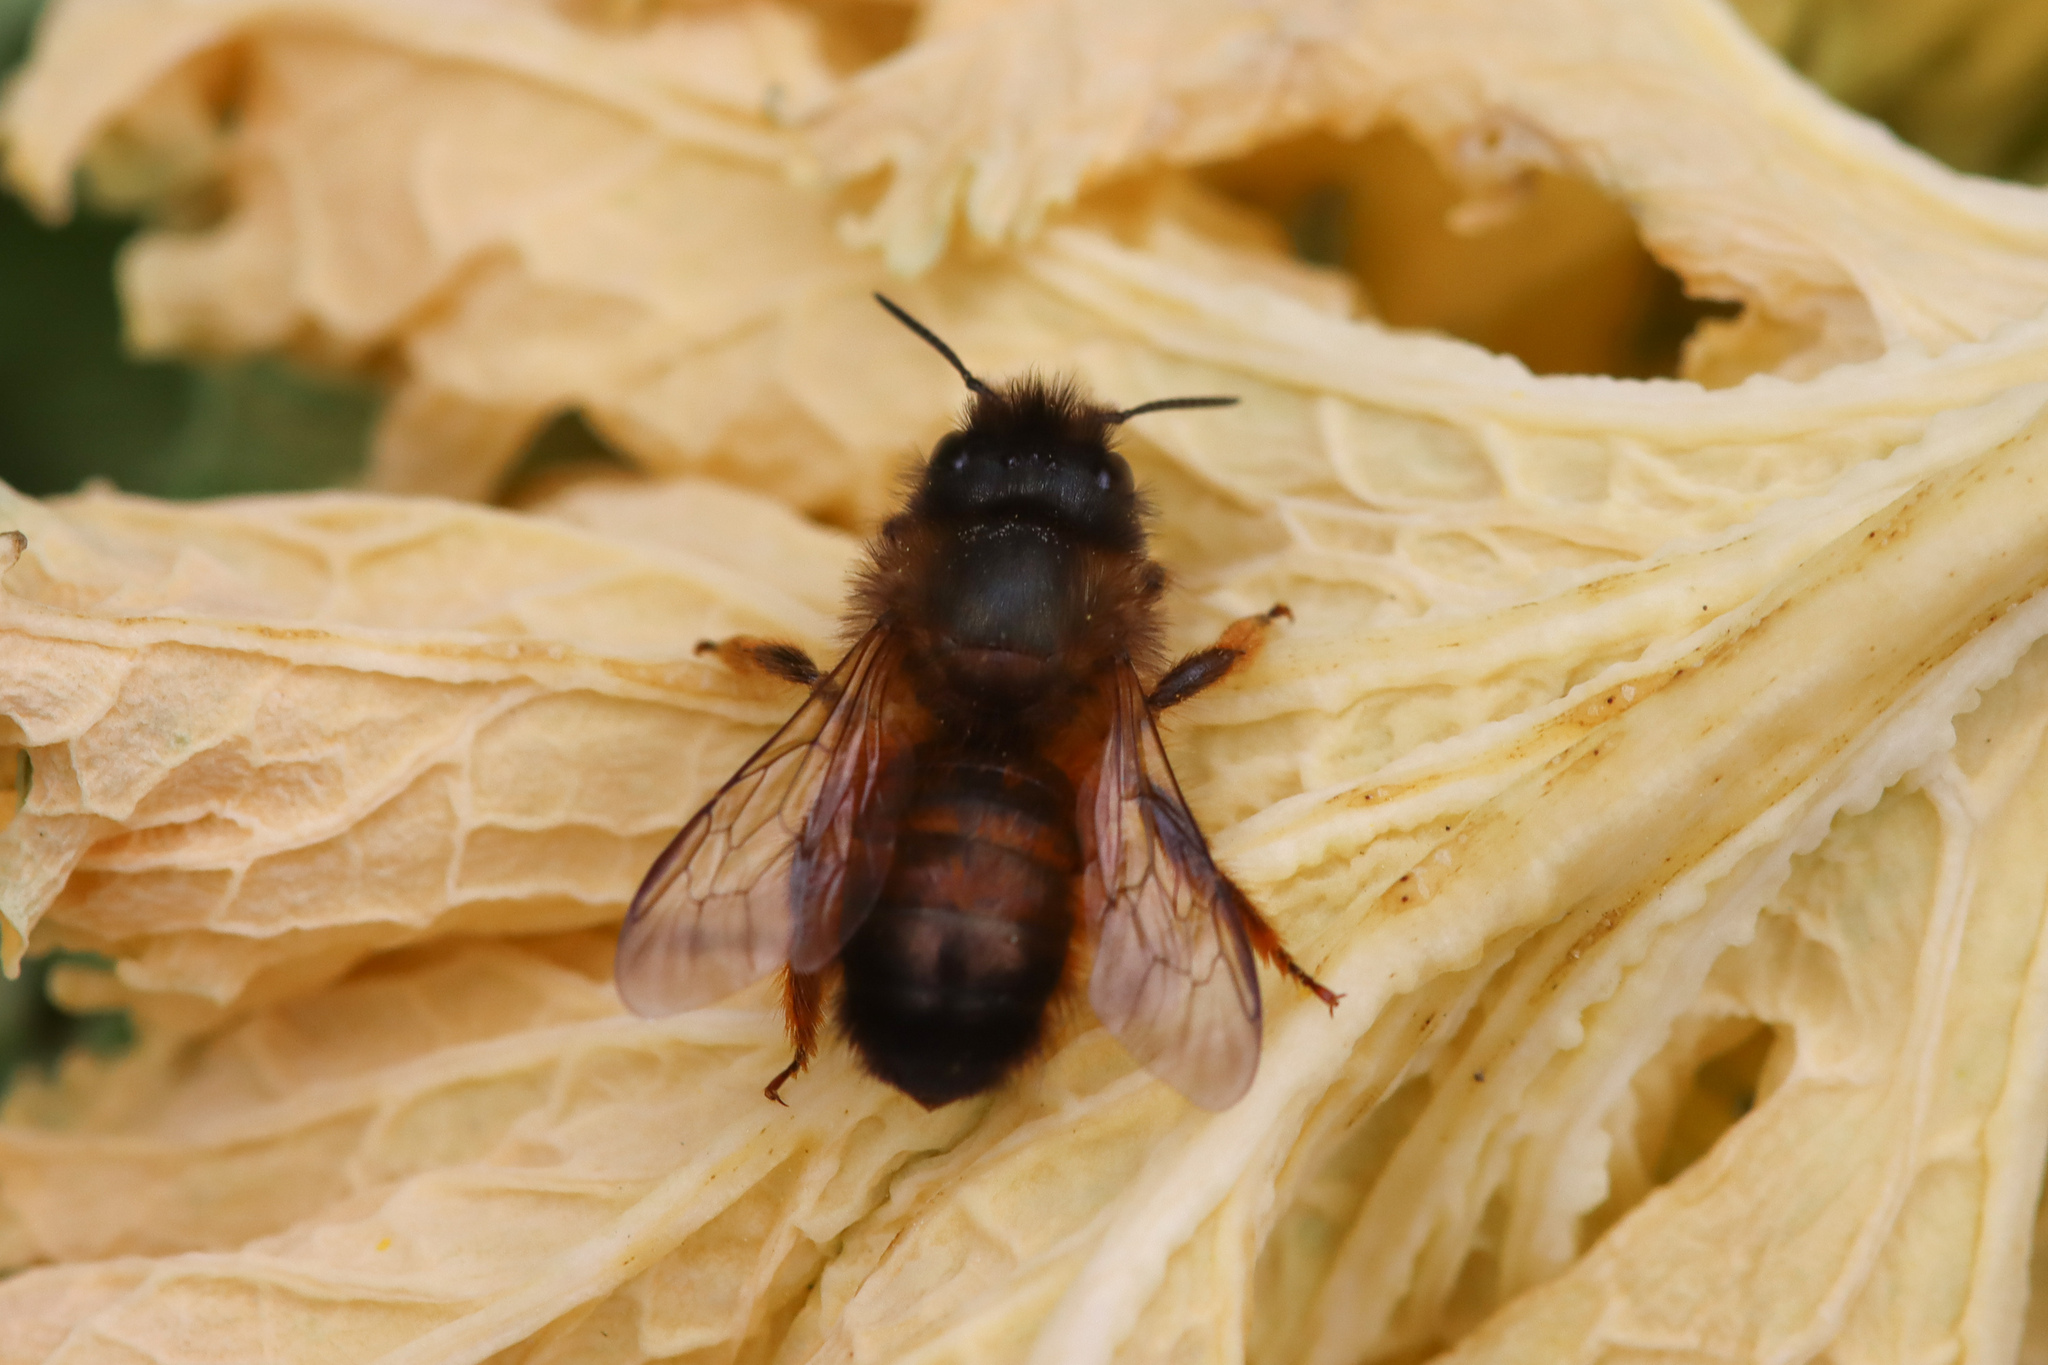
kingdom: Animalia
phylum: Arthropoda
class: Insecta
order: Hymenoptera
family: Megachilidae
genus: Osmia
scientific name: Osmia bicornis
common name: Red mason bee
